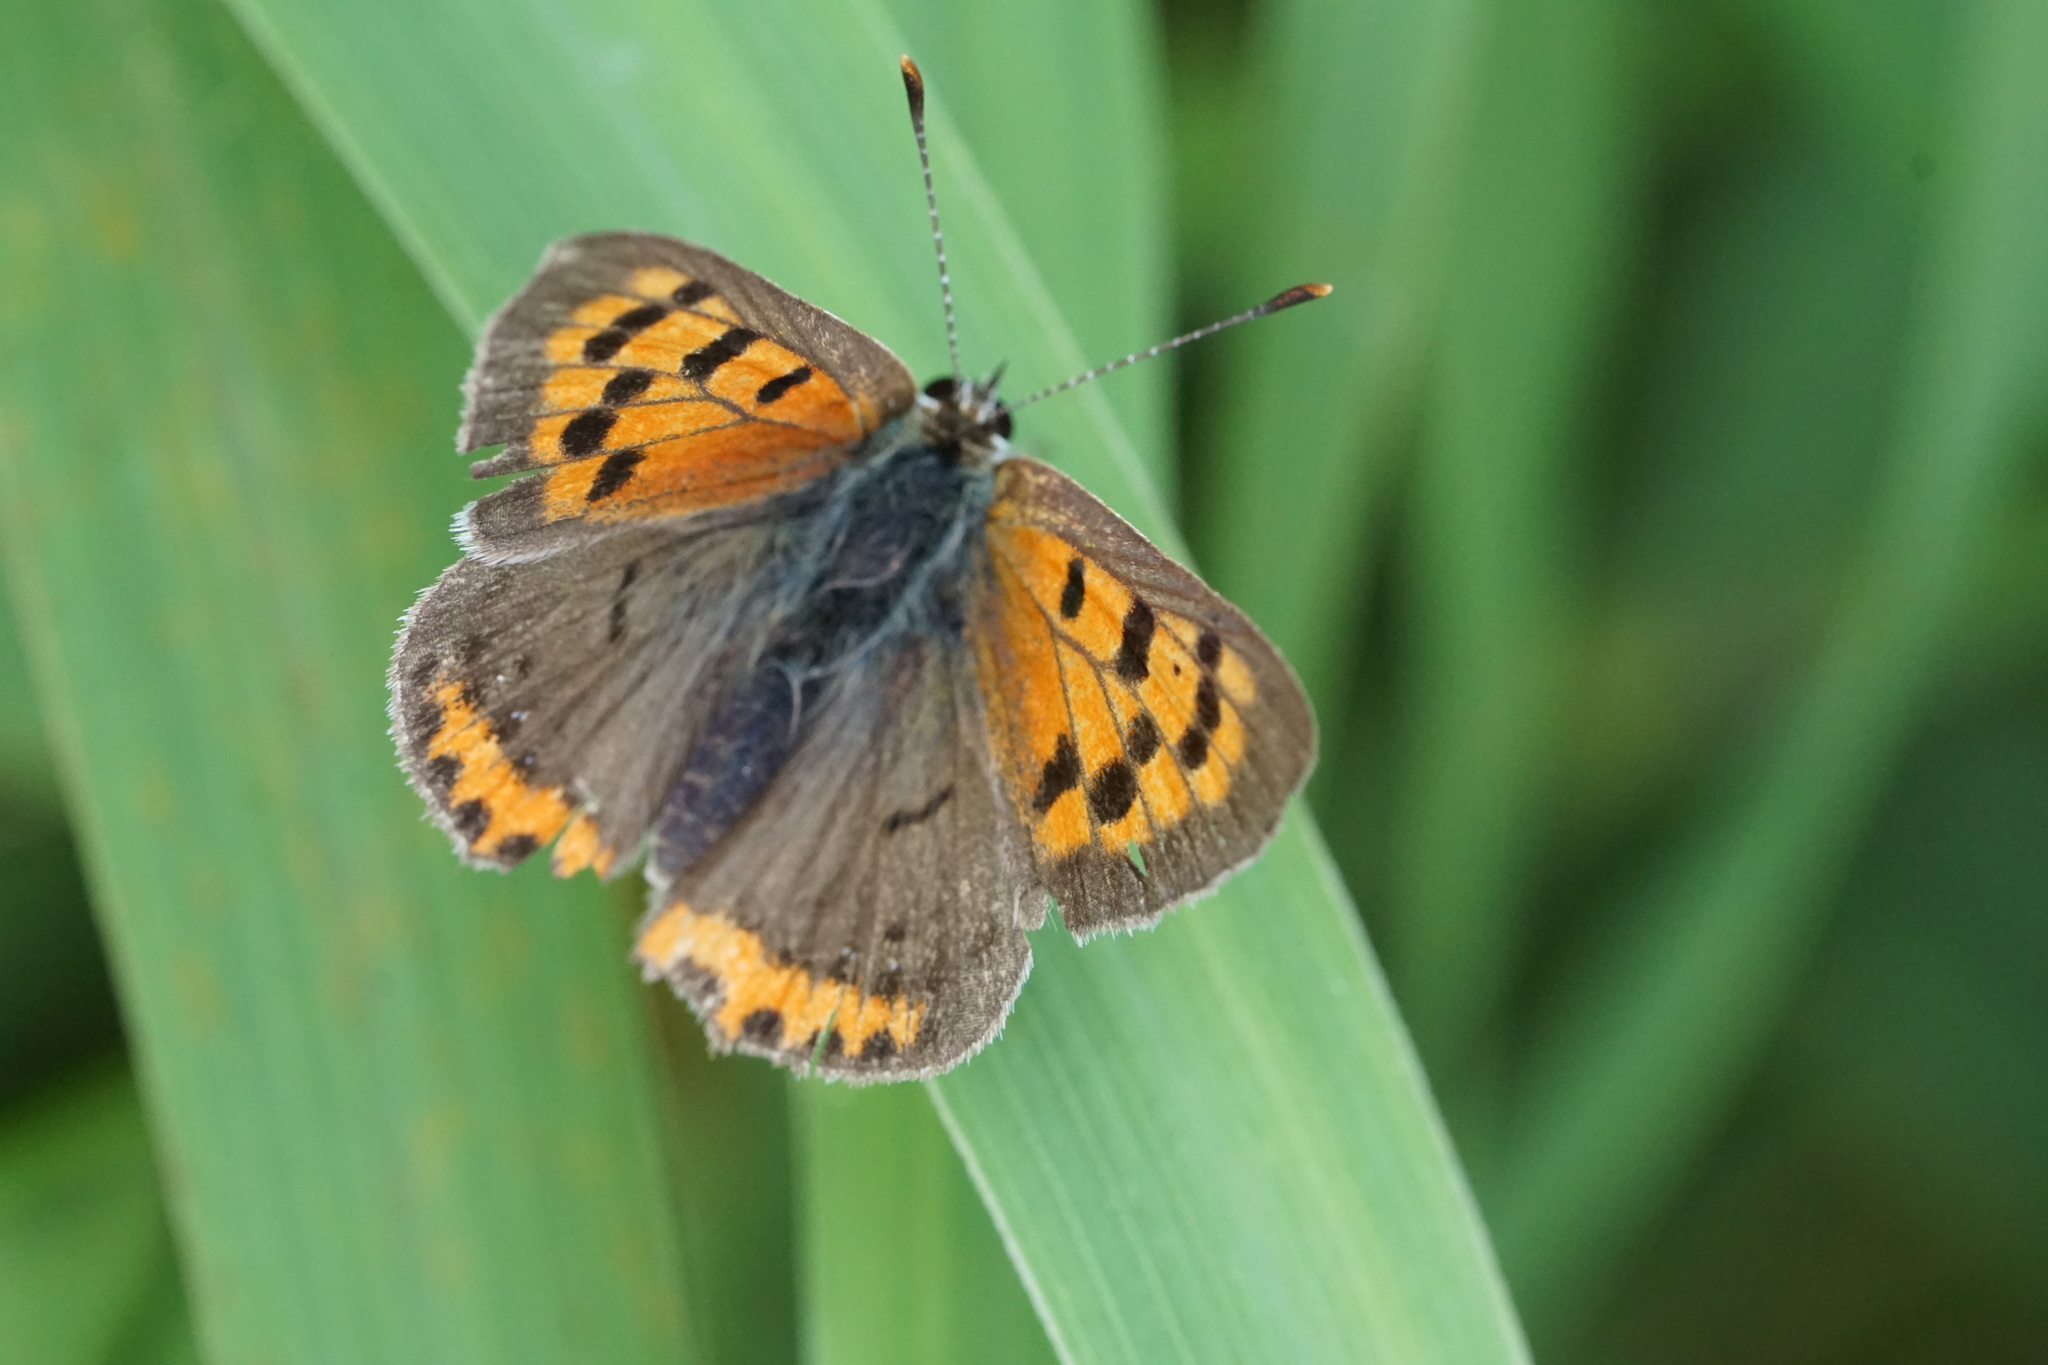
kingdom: Animalia
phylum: Arthropoda
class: Insecta
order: Lepidoptera
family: Lycaenidae
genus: Lycaena
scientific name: Lycaena hypophlaeas
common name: American copper
